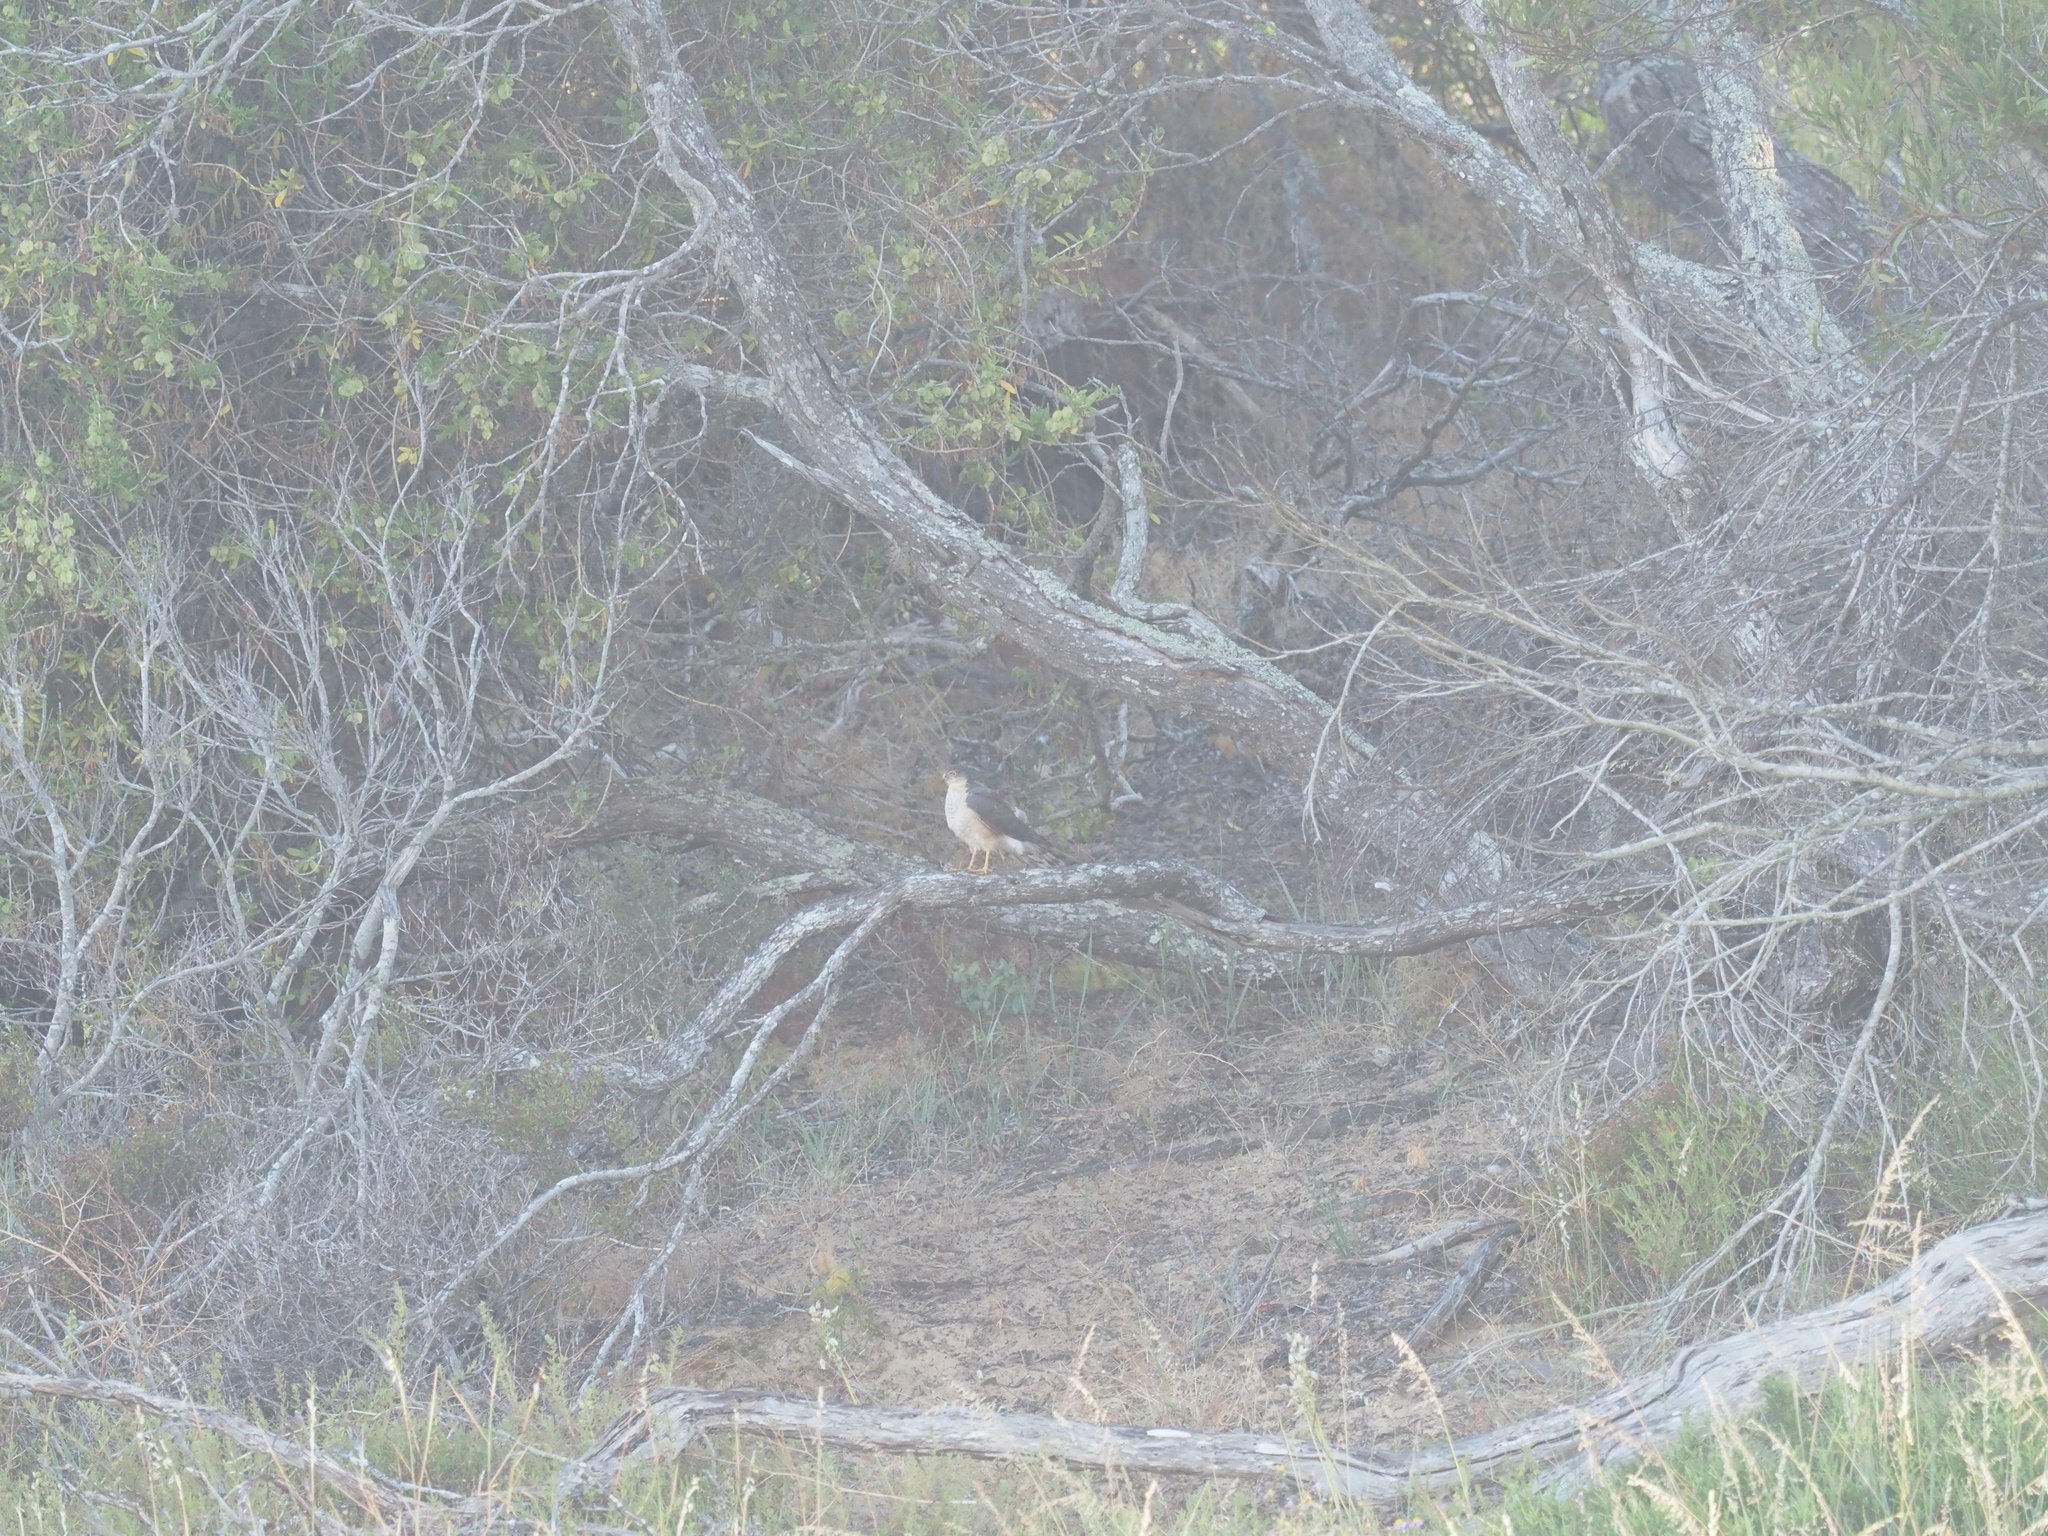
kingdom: Animalia
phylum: Chordata
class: Aves
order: Accipitriformes
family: Accipitridae
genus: Accipiter
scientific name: Accipiter rufiventris
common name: Rufous-breasted sparrowhawk
